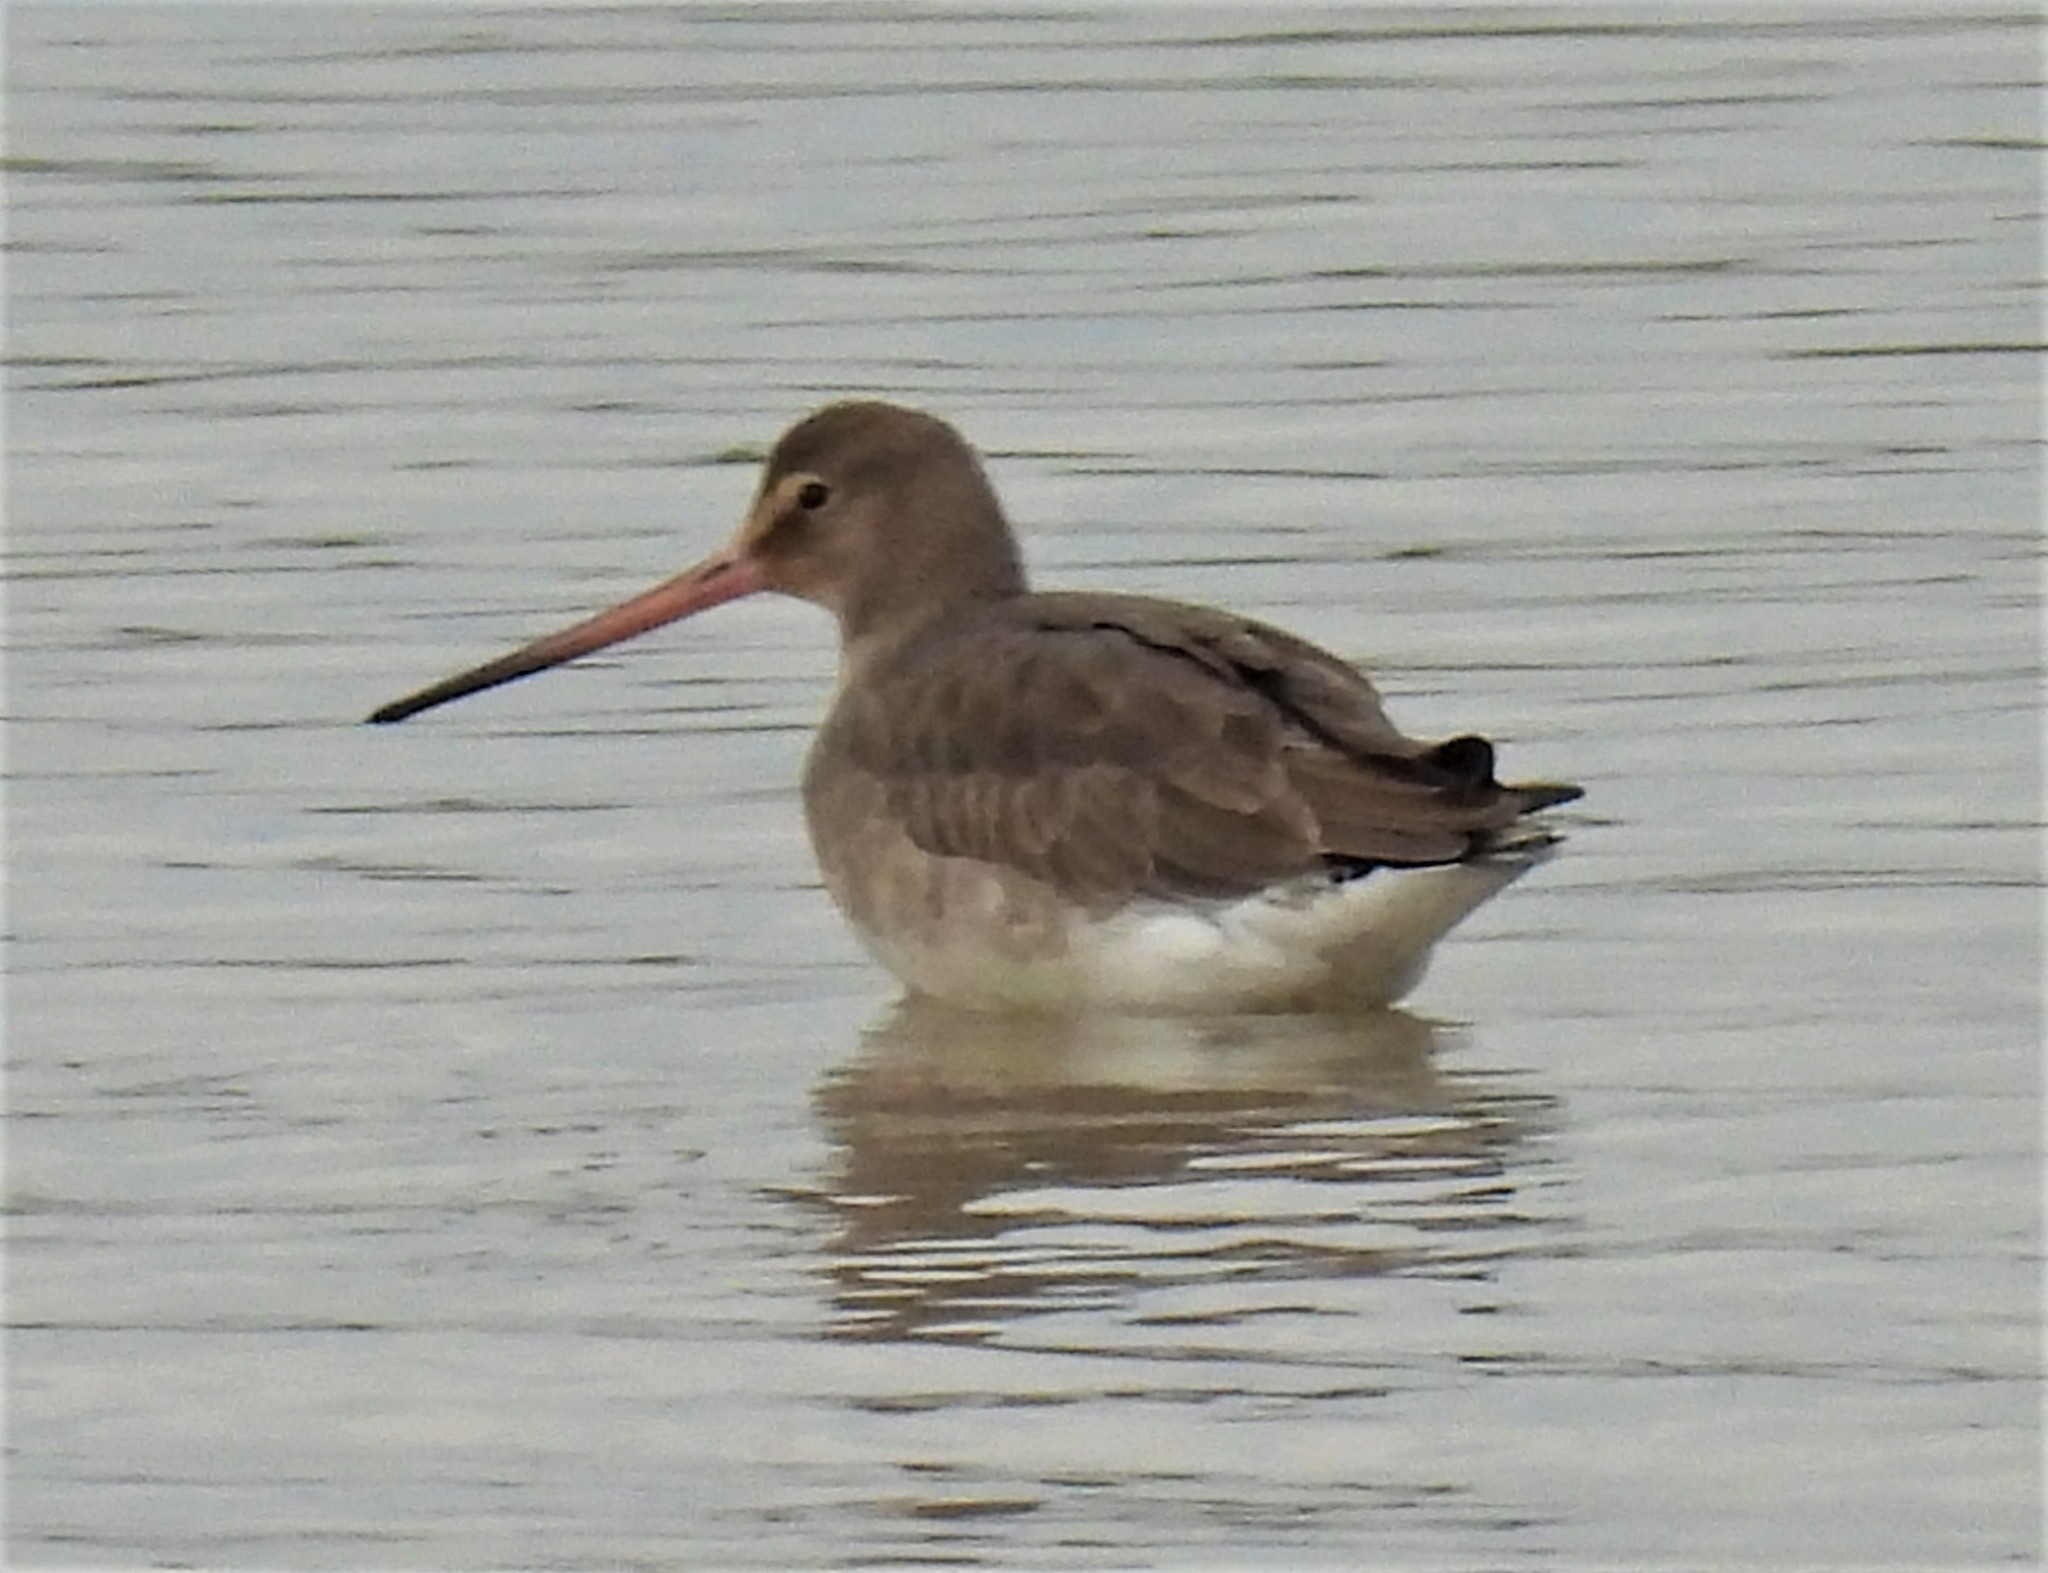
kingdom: Animalia
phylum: Chordata
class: Aves
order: Charadriiformes
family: Scolopacidae
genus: Limosa
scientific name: Limosa limosa
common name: Black-tailed godwit
